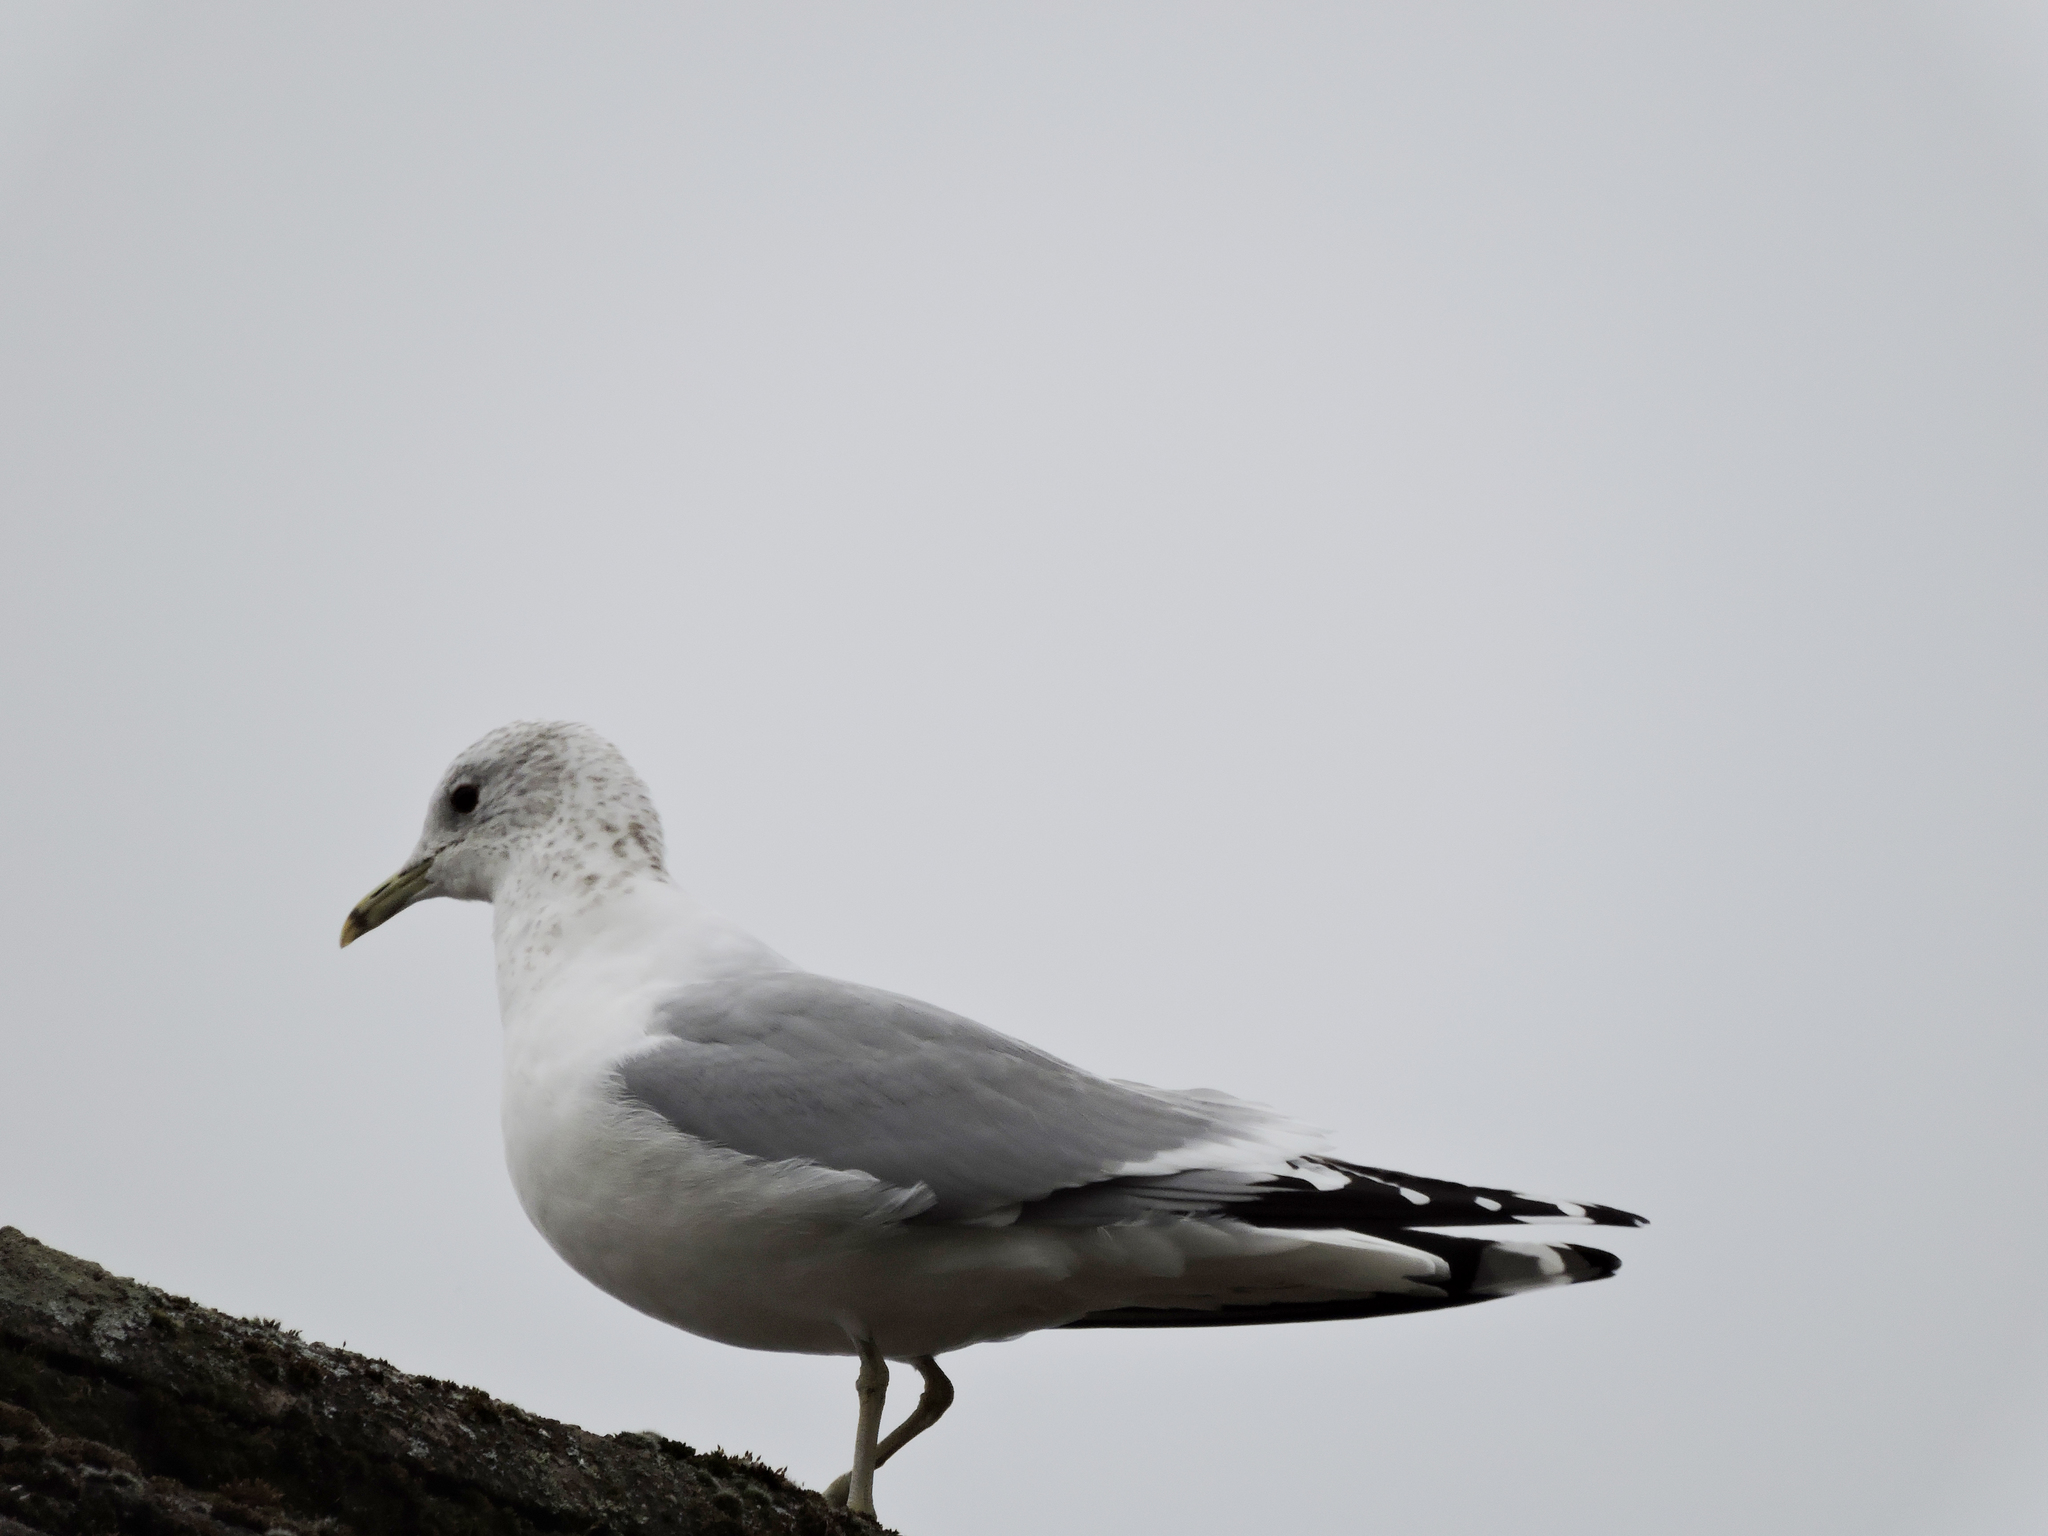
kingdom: Animalia
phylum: Chordata
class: Aves
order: Charadriiformes
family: Laridae
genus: Larus
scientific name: Larus canus
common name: Mew gull
